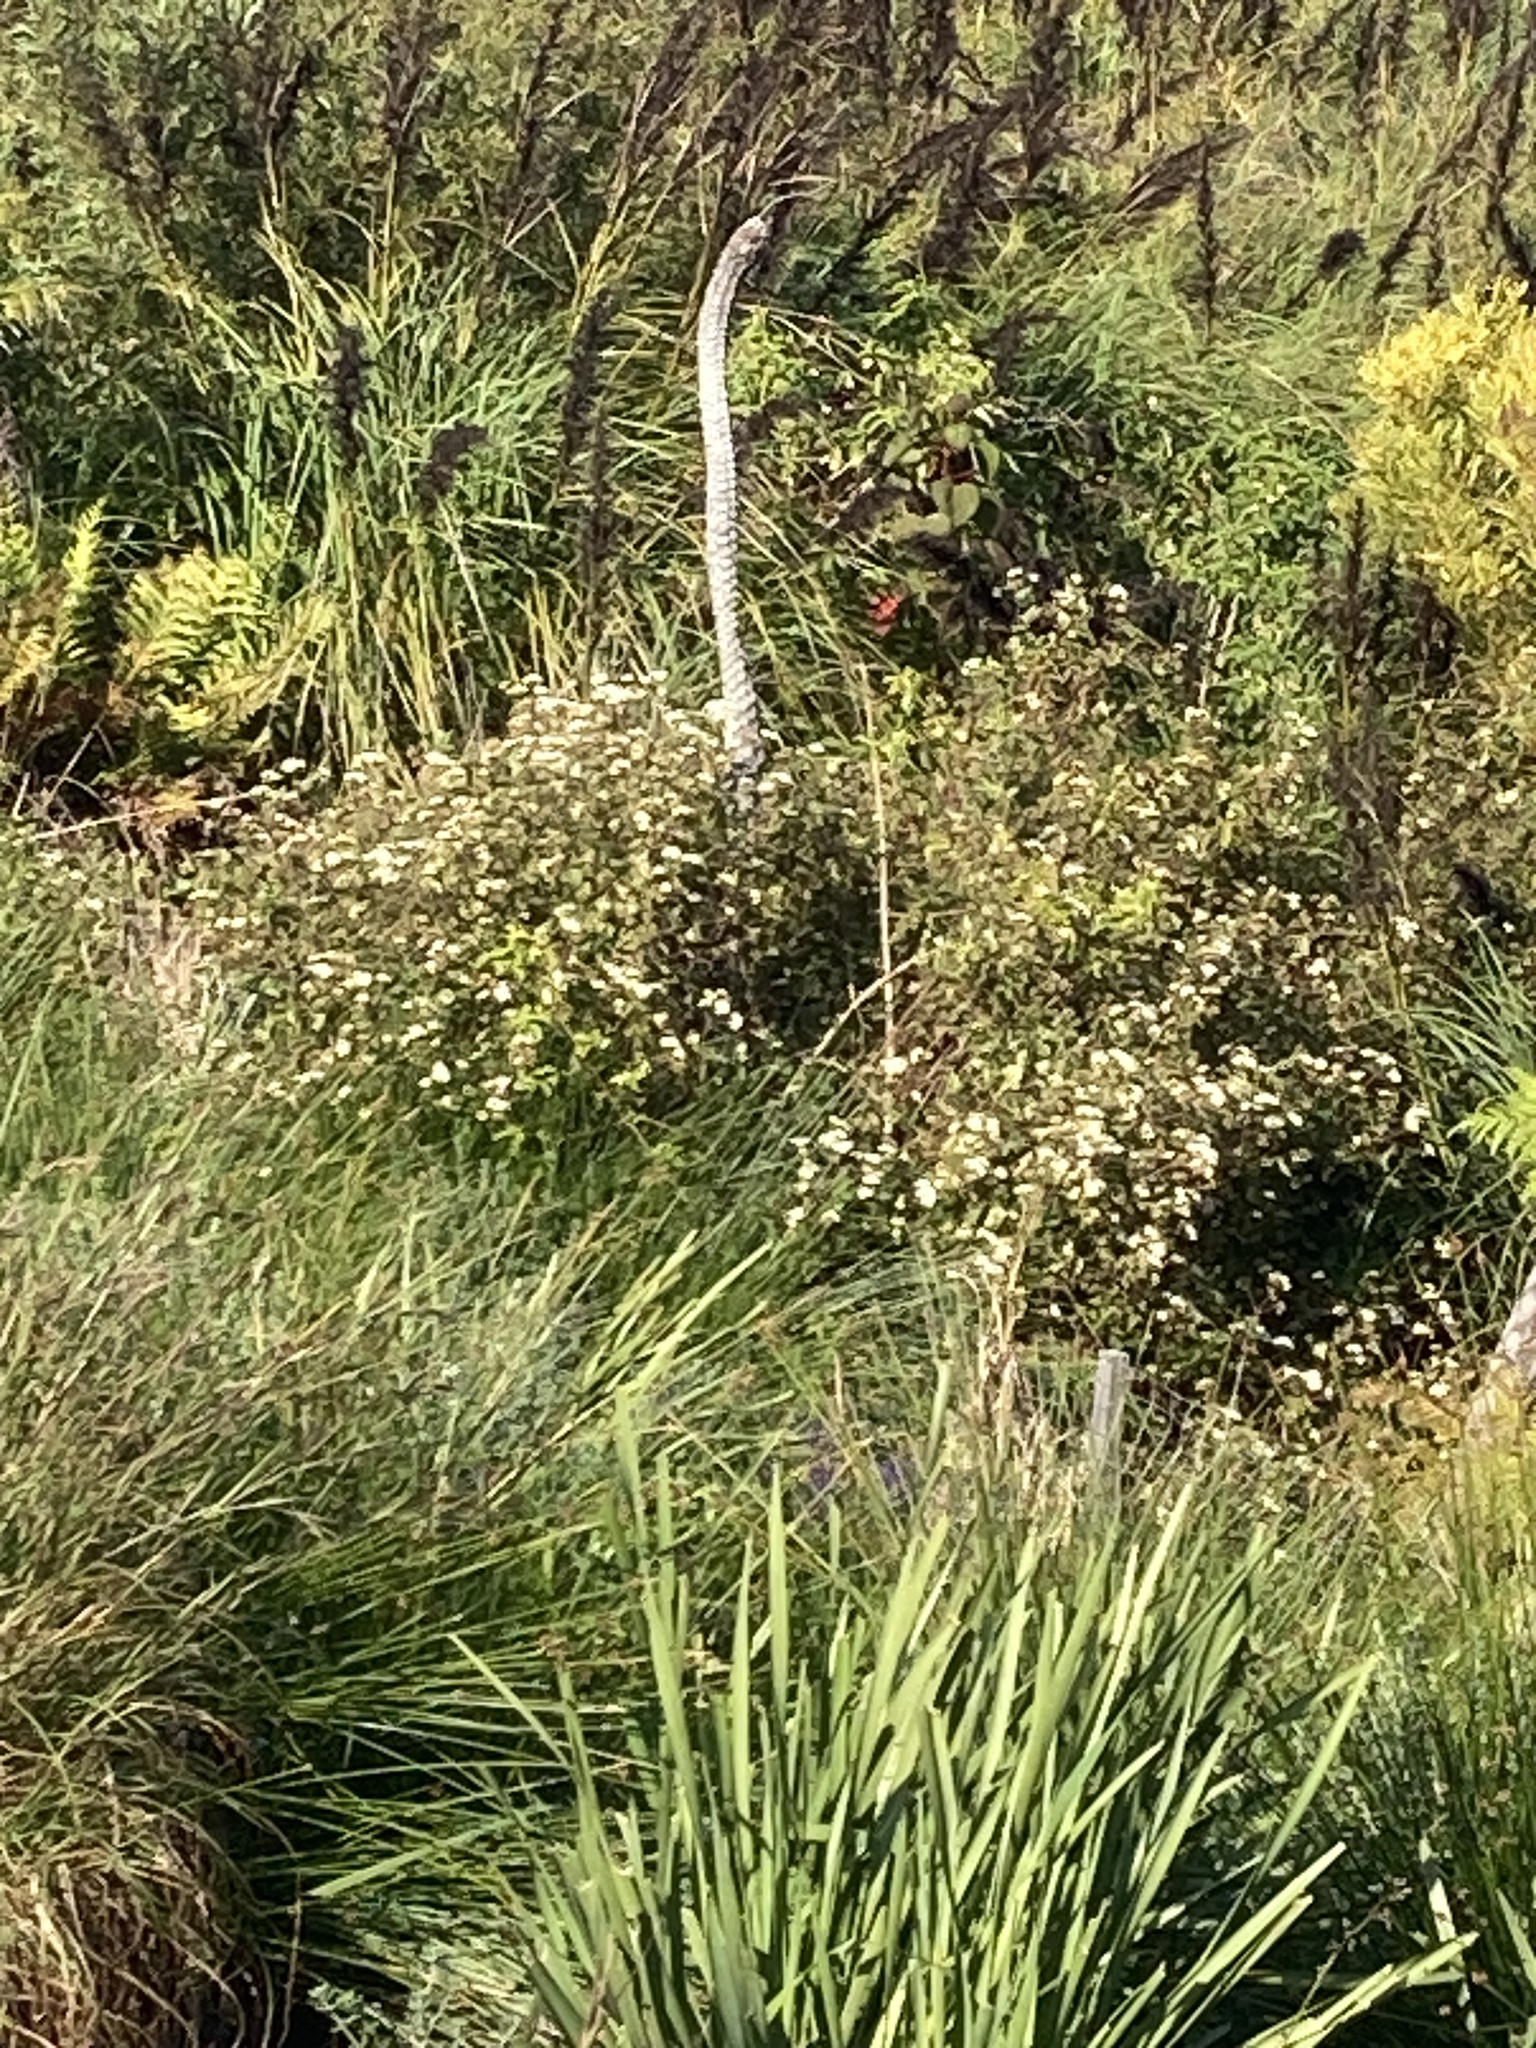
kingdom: Plantae
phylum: Tracheophyta
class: Magnoliopsida
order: Asterales
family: Asteraceae
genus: Ageratina
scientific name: Ageratina adenophora
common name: Sticky snakeroot
